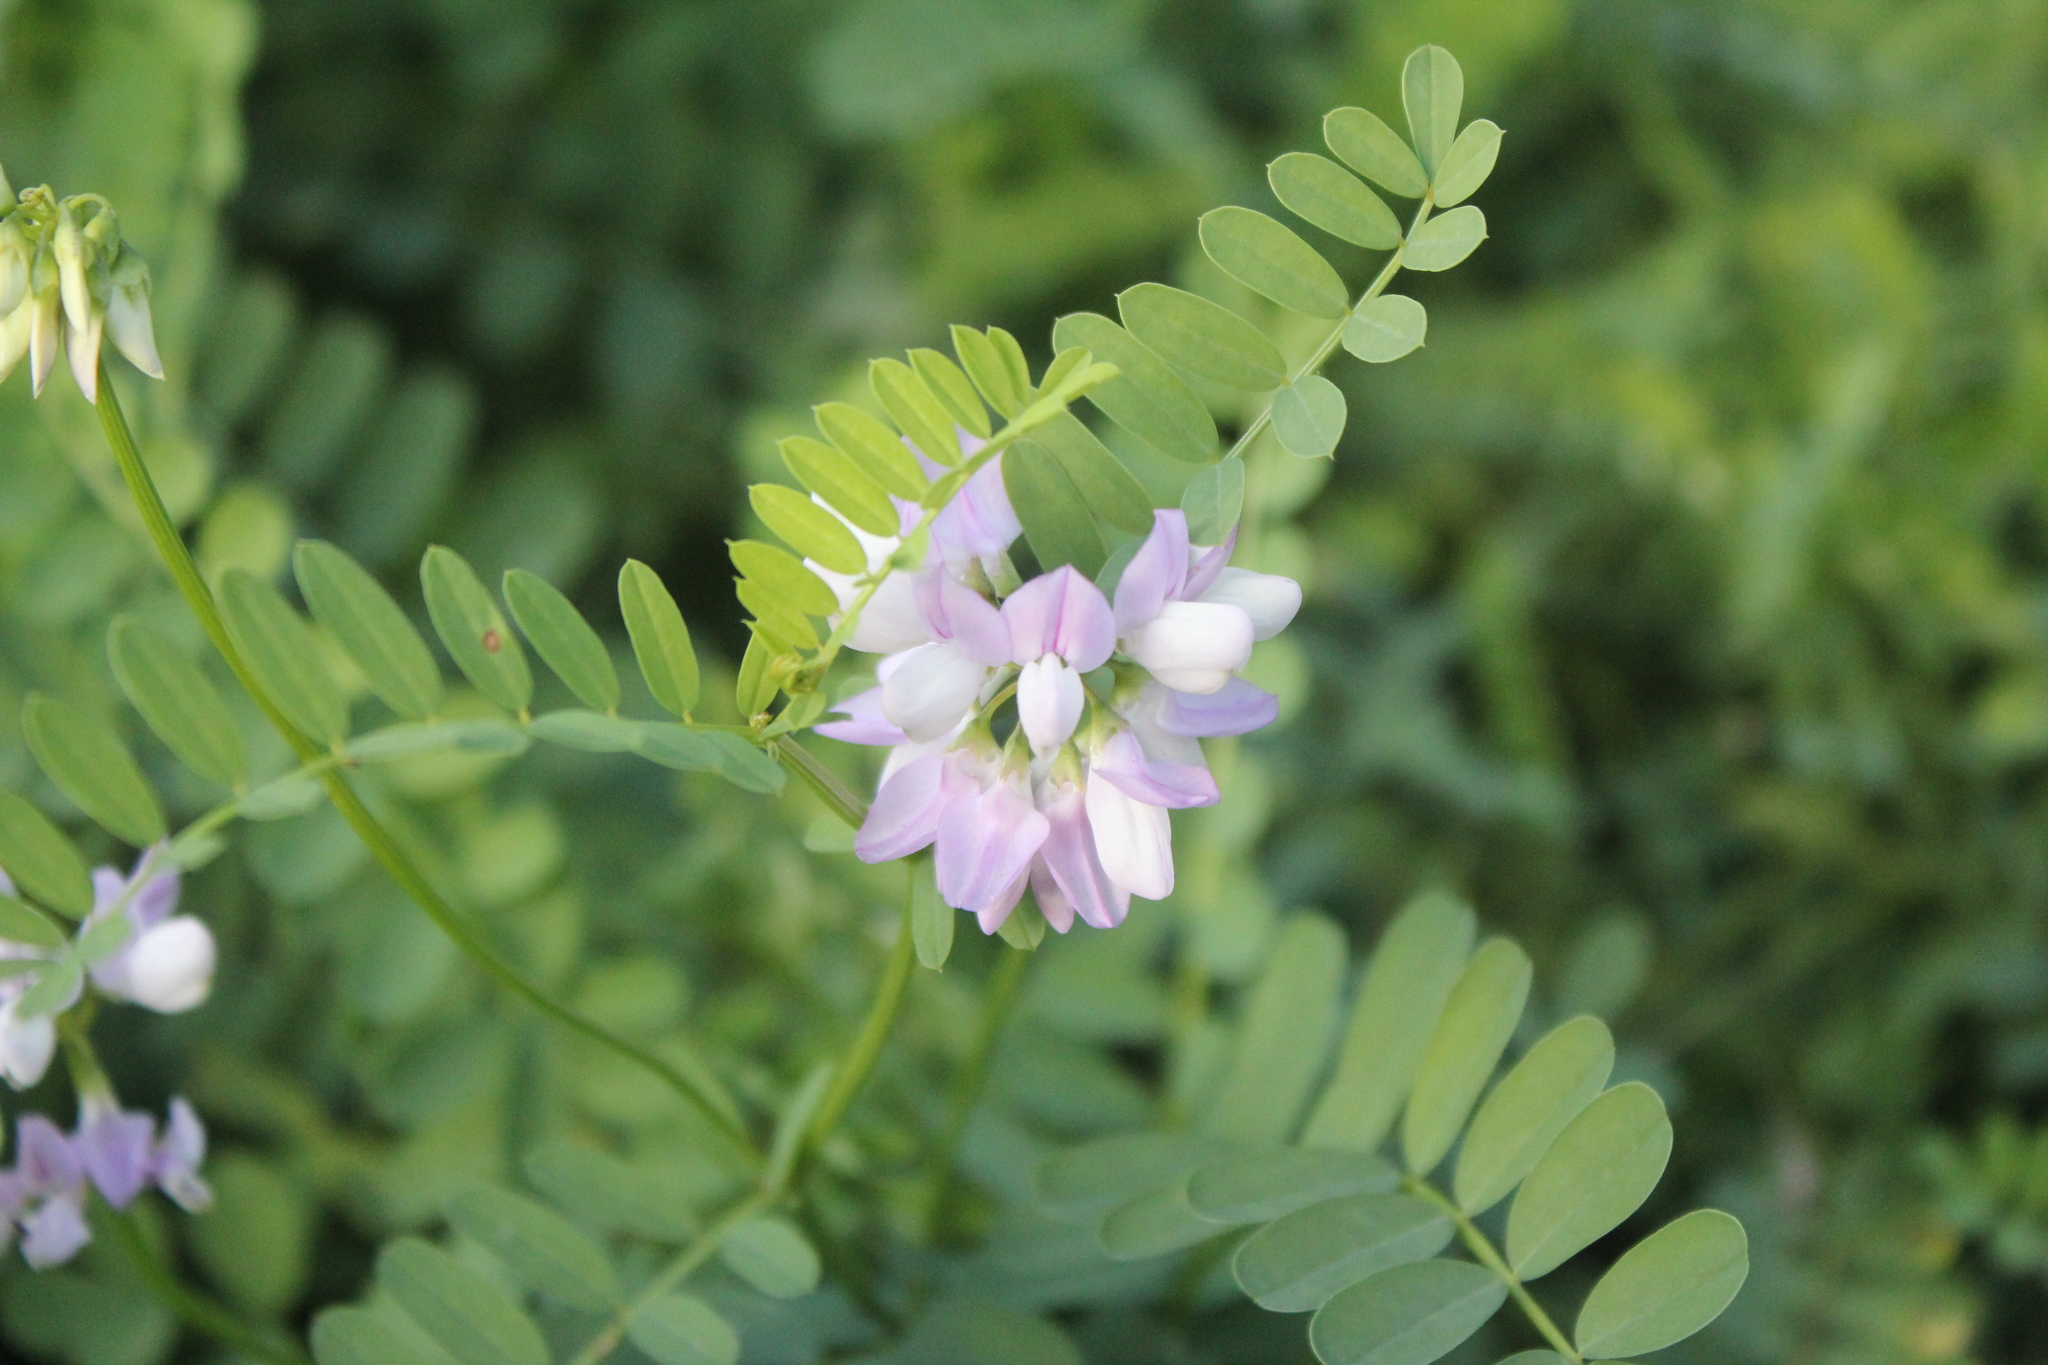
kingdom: Plantae
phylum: Tracheophyta
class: Magnoliopsida
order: Fabales
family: Fabaceae
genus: Coronilla
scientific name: Coronilla varia
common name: Crownvetch
